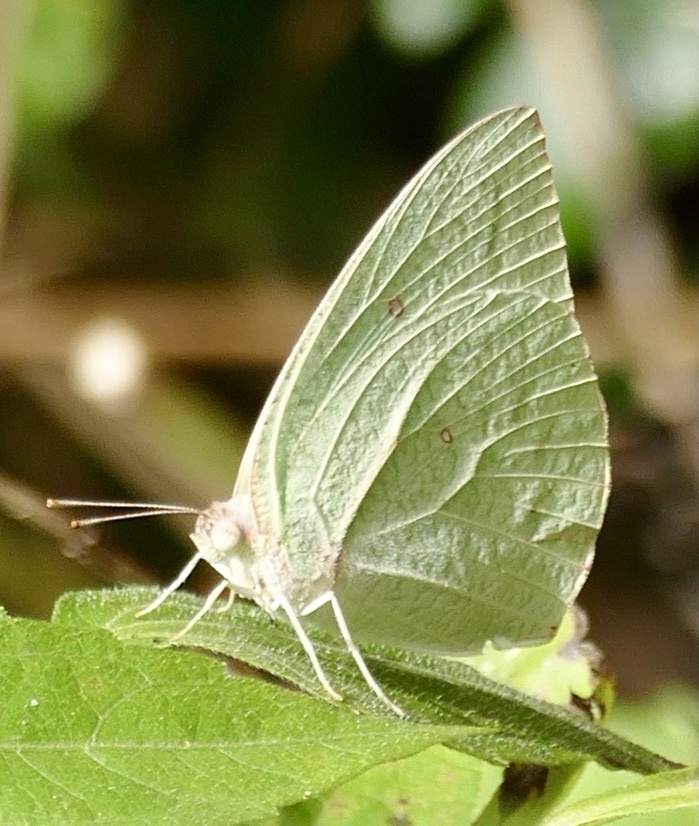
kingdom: Animalia
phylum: Arthropoda
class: Insecta
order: Lepidoptera
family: Pieridae
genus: Catopsilia
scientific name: Catopsilia florella
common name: African migrant
